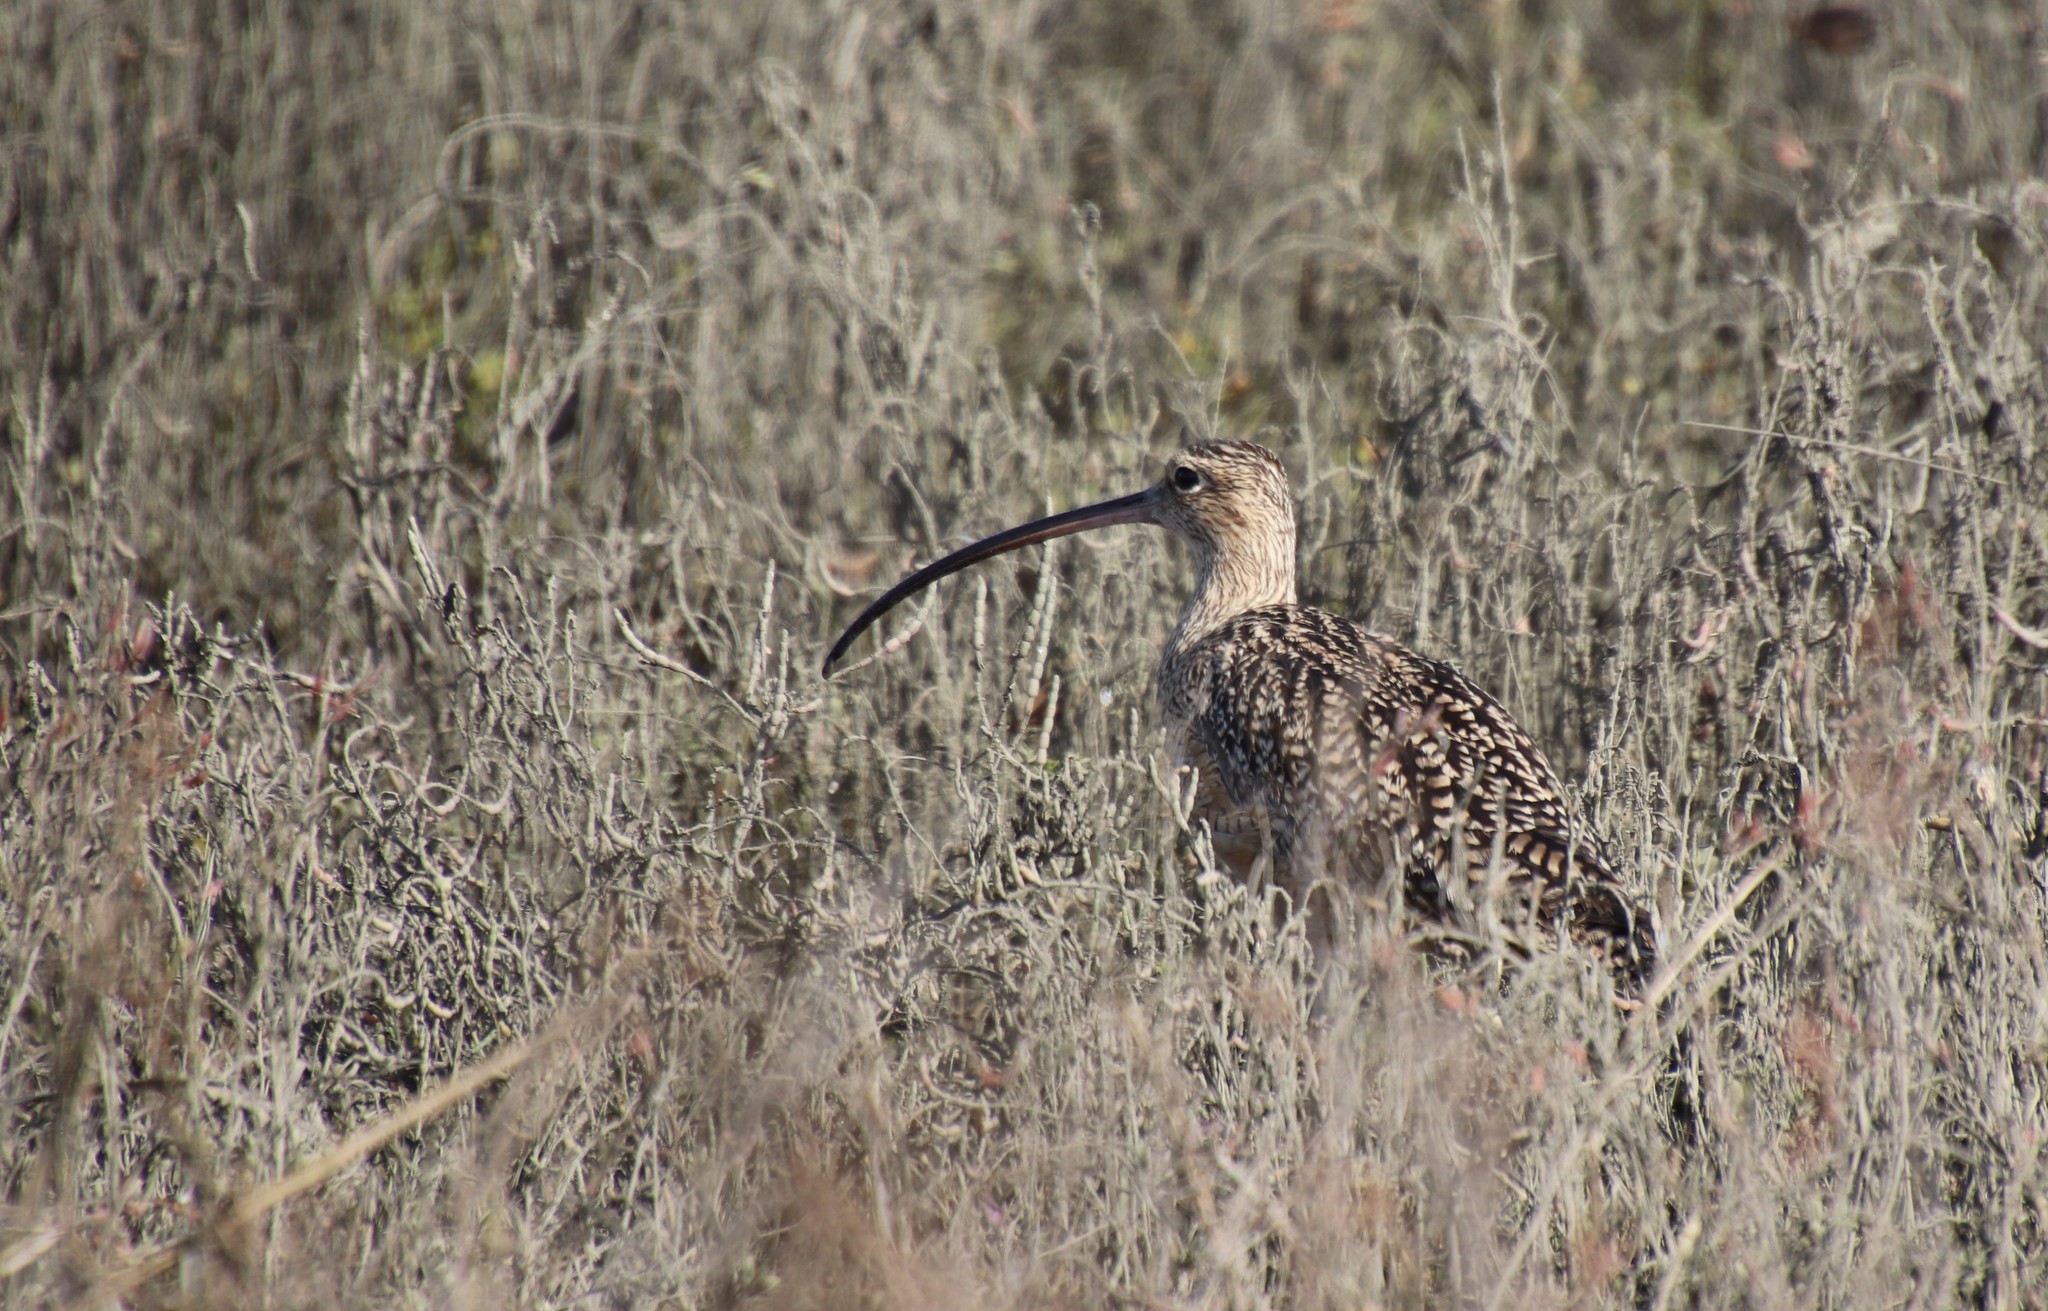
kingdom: Animalia
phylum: Chordata
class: Aves
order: Charadriiformes
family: Scolopacidae
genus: Numenius
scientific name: Numenius americanus
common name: Long-billed curlew
